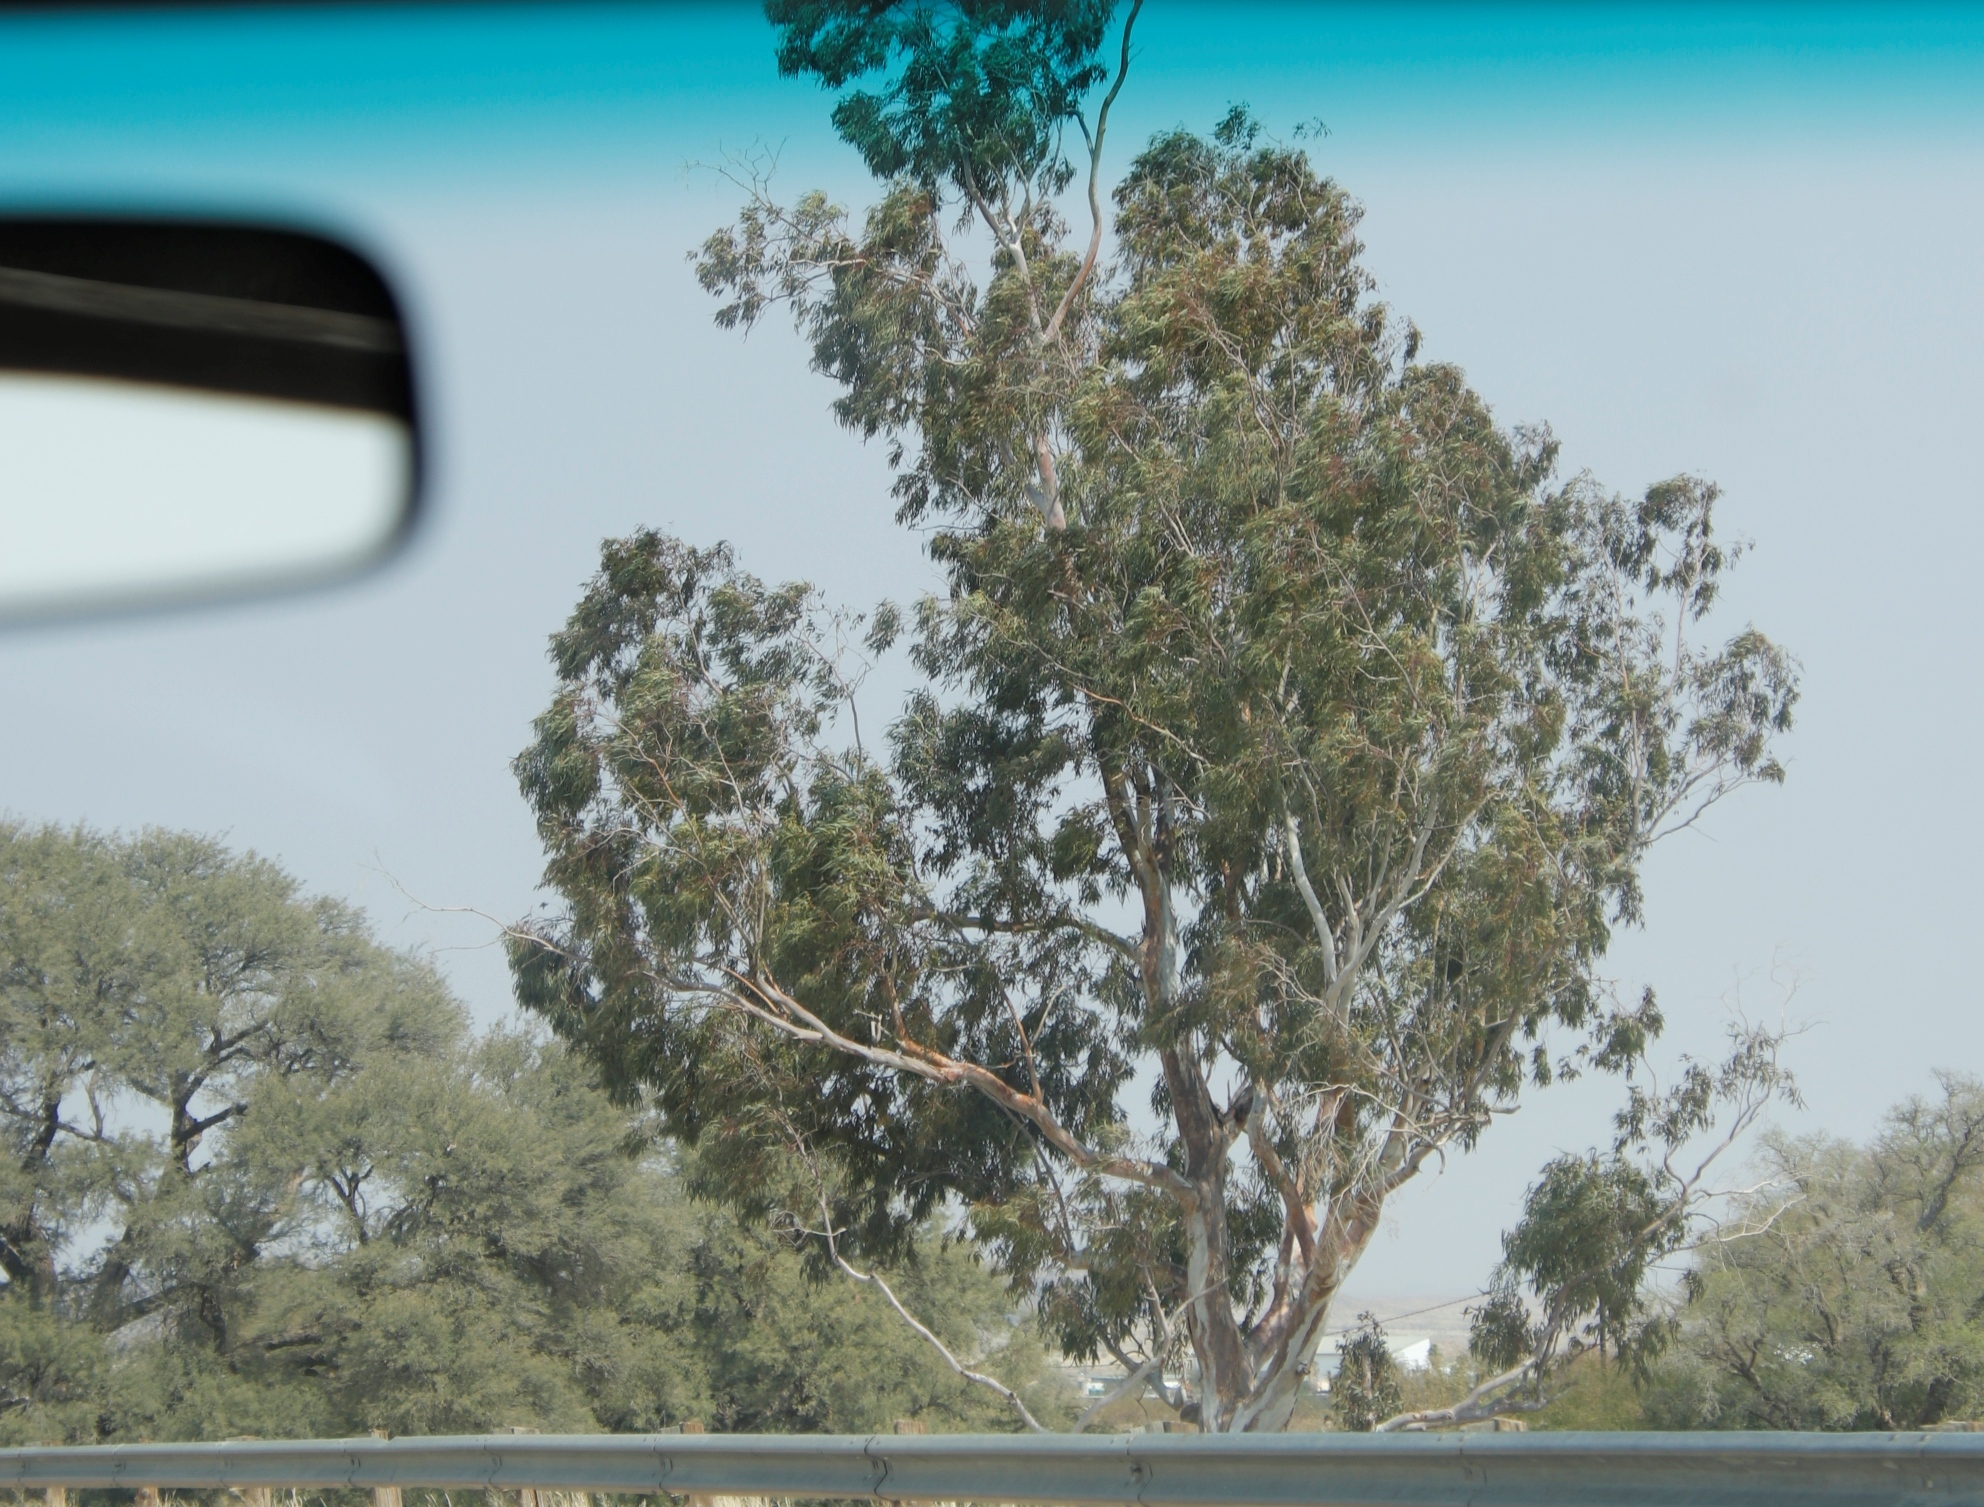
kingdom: Plantae
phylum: Tracheophyta
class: Magnoliopsida
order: Myrtales
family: Myrtaceae
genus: Eucalyptus
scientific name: Eucalyptus cladocalyx
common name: Sugargum
